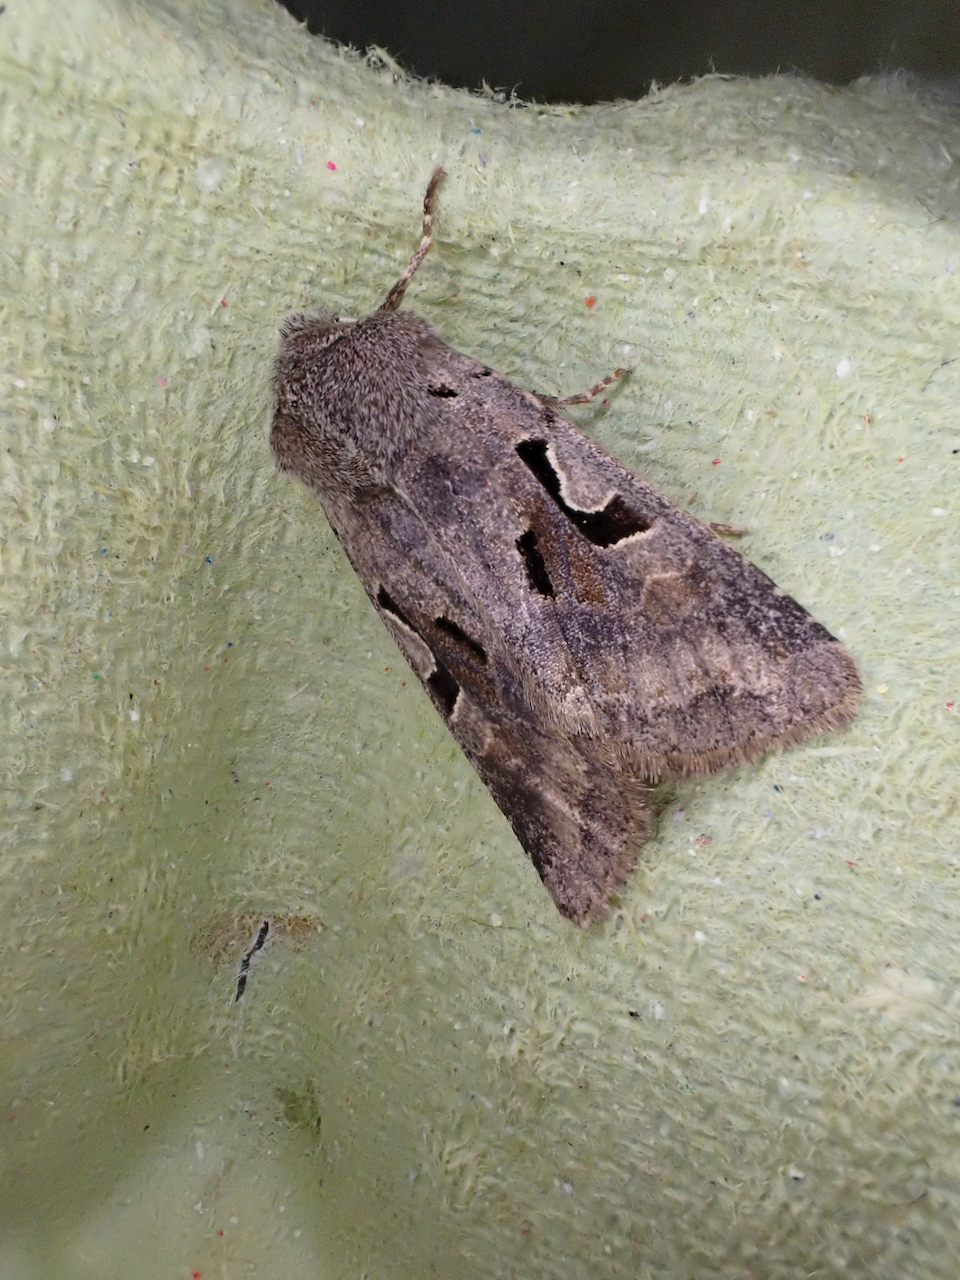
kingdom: Animalia
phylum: Arthropoda
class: Insecta
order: Lepidoptera
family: Noctuidae
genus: Orthosia
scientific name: Orthosia gothica
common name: Hebrew character
